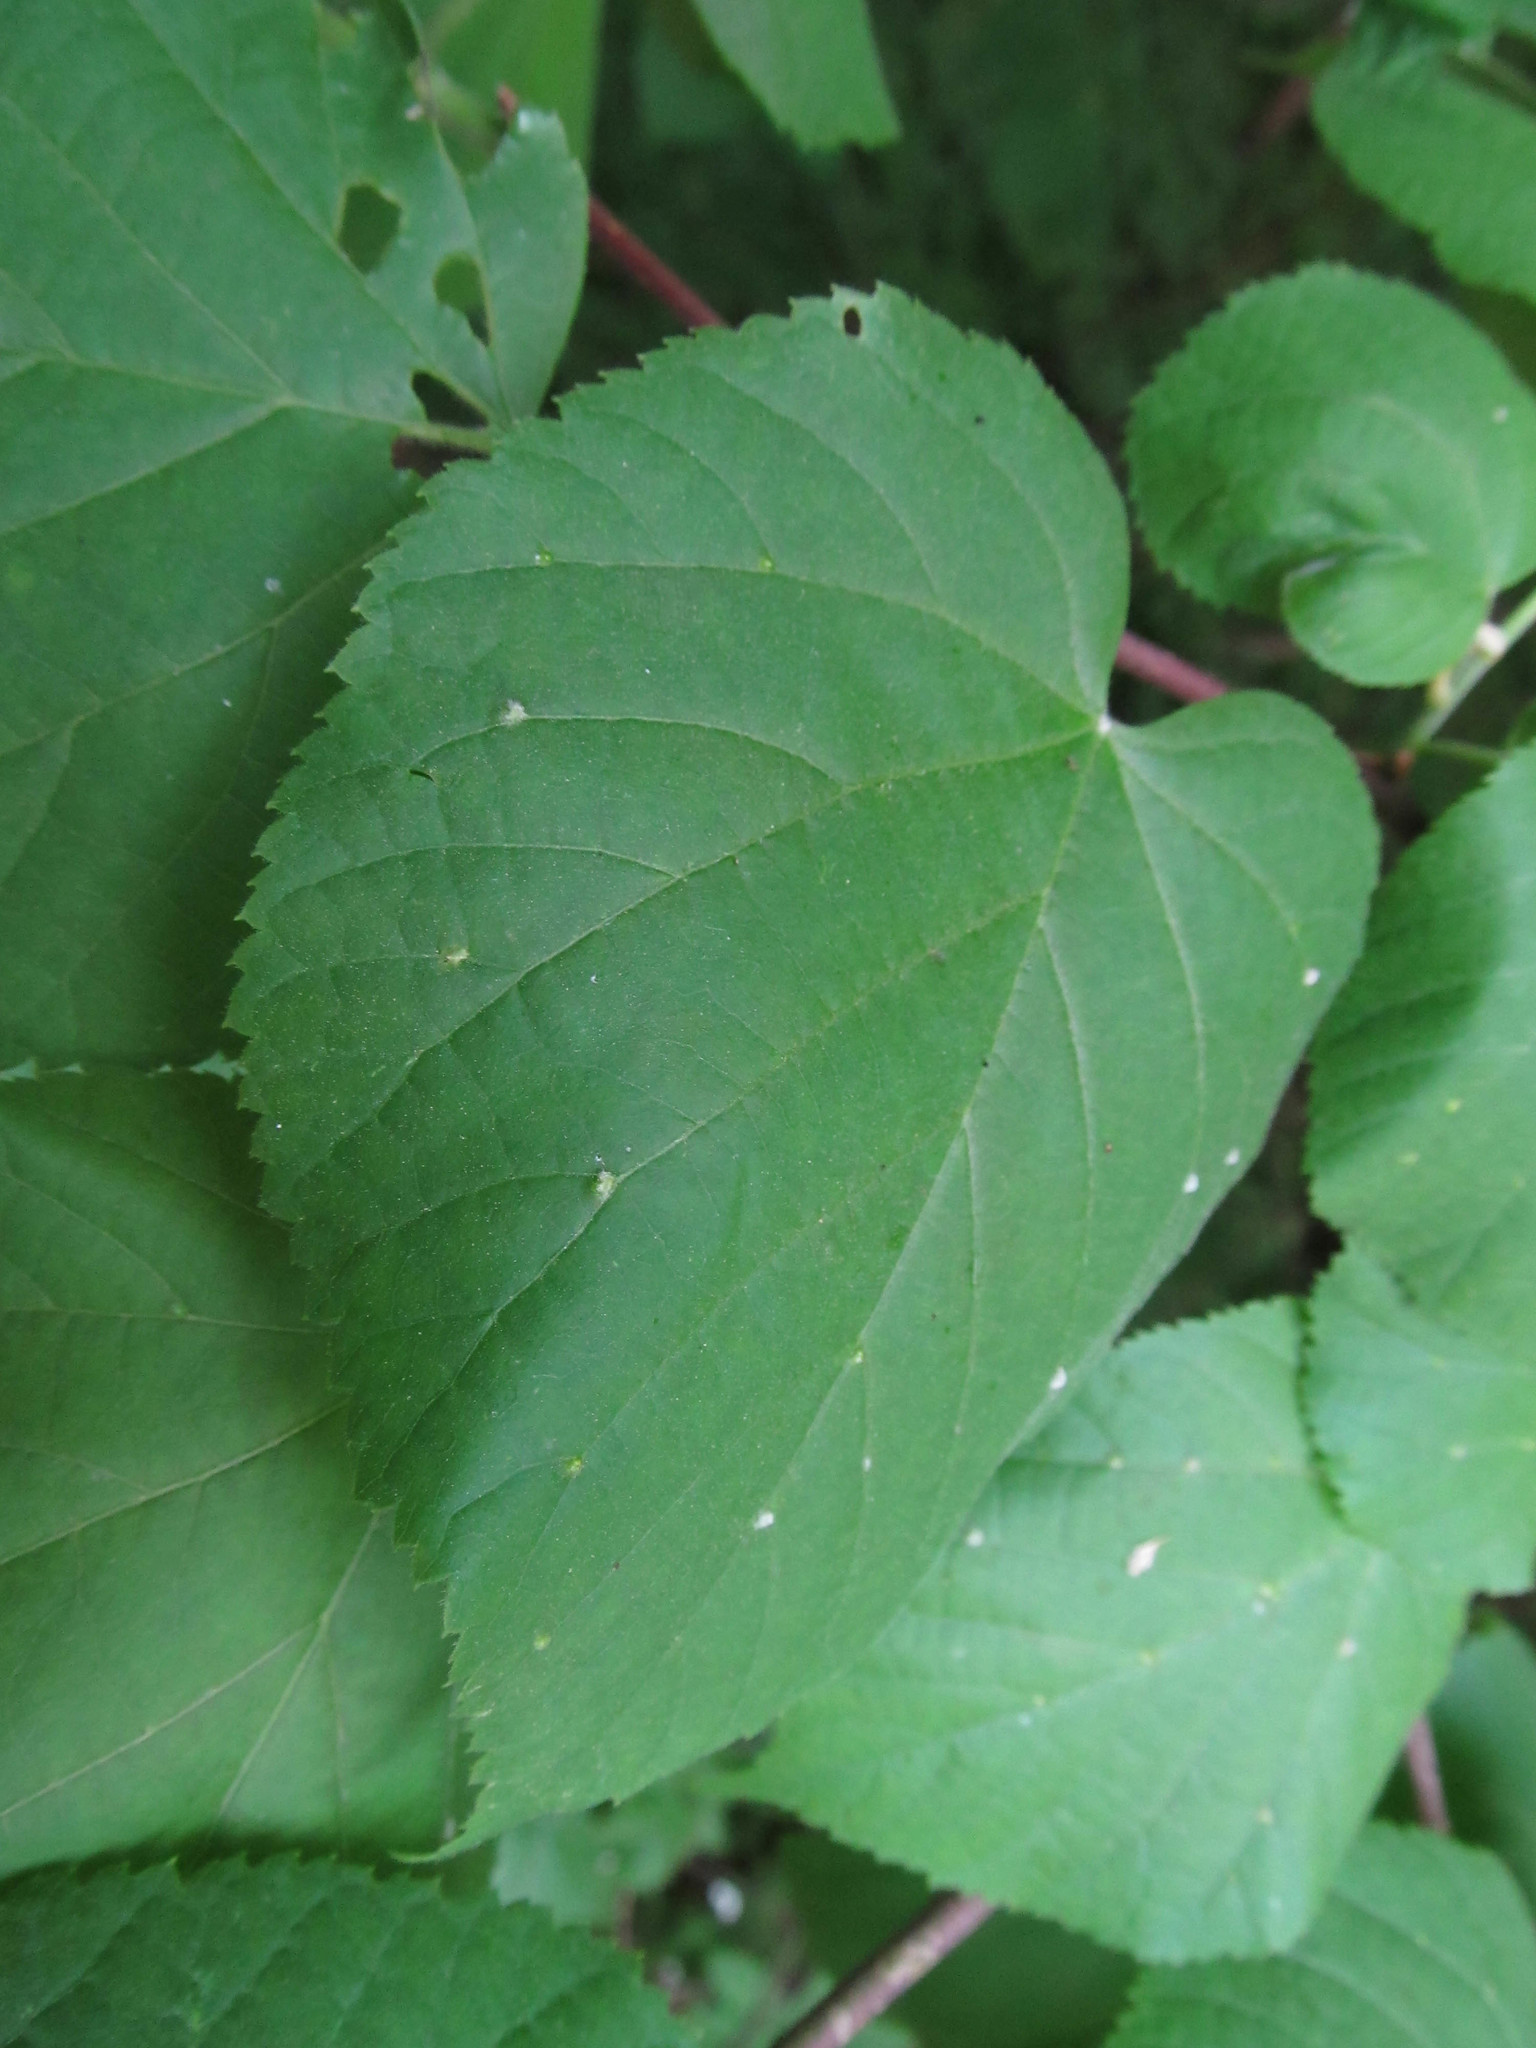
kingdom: Animalia
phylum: Arthropoda
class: Arachnida
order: Trombidiformes
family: Eriophyidae
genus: Eriophyes
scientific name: Eriophyes exilis
